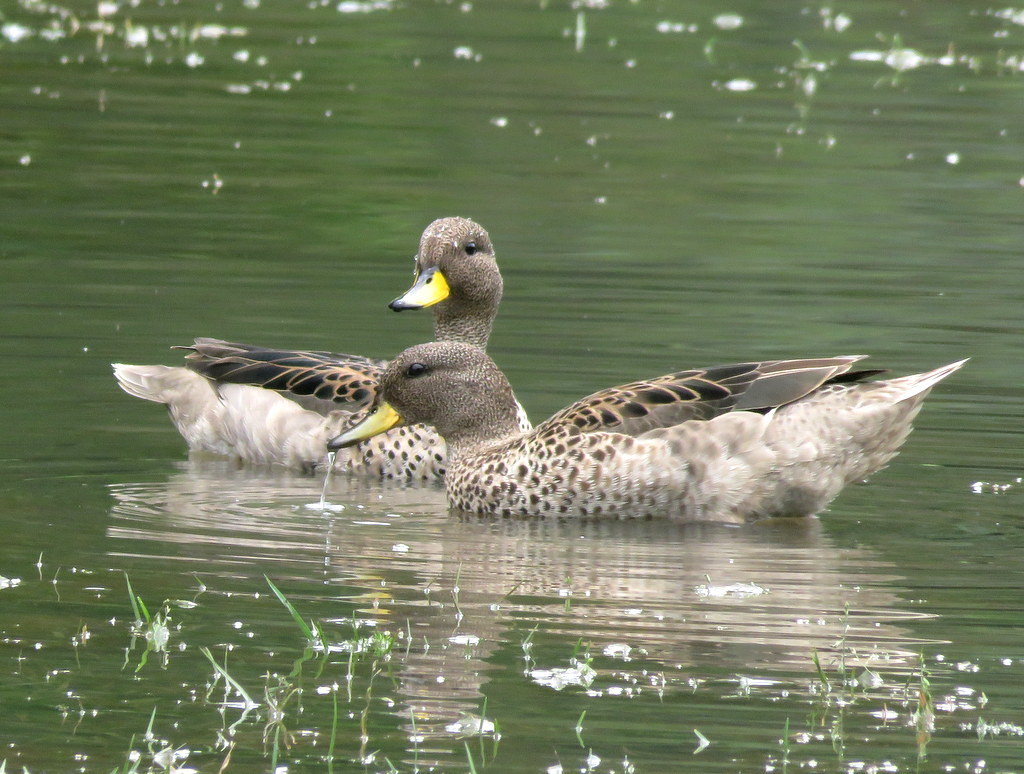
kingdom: Animalia
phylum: Chordata
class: Aves
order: Anseriformes
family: Anatidae
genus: Anas
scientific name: Anas flavirostris
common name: Yellow-billed teal
